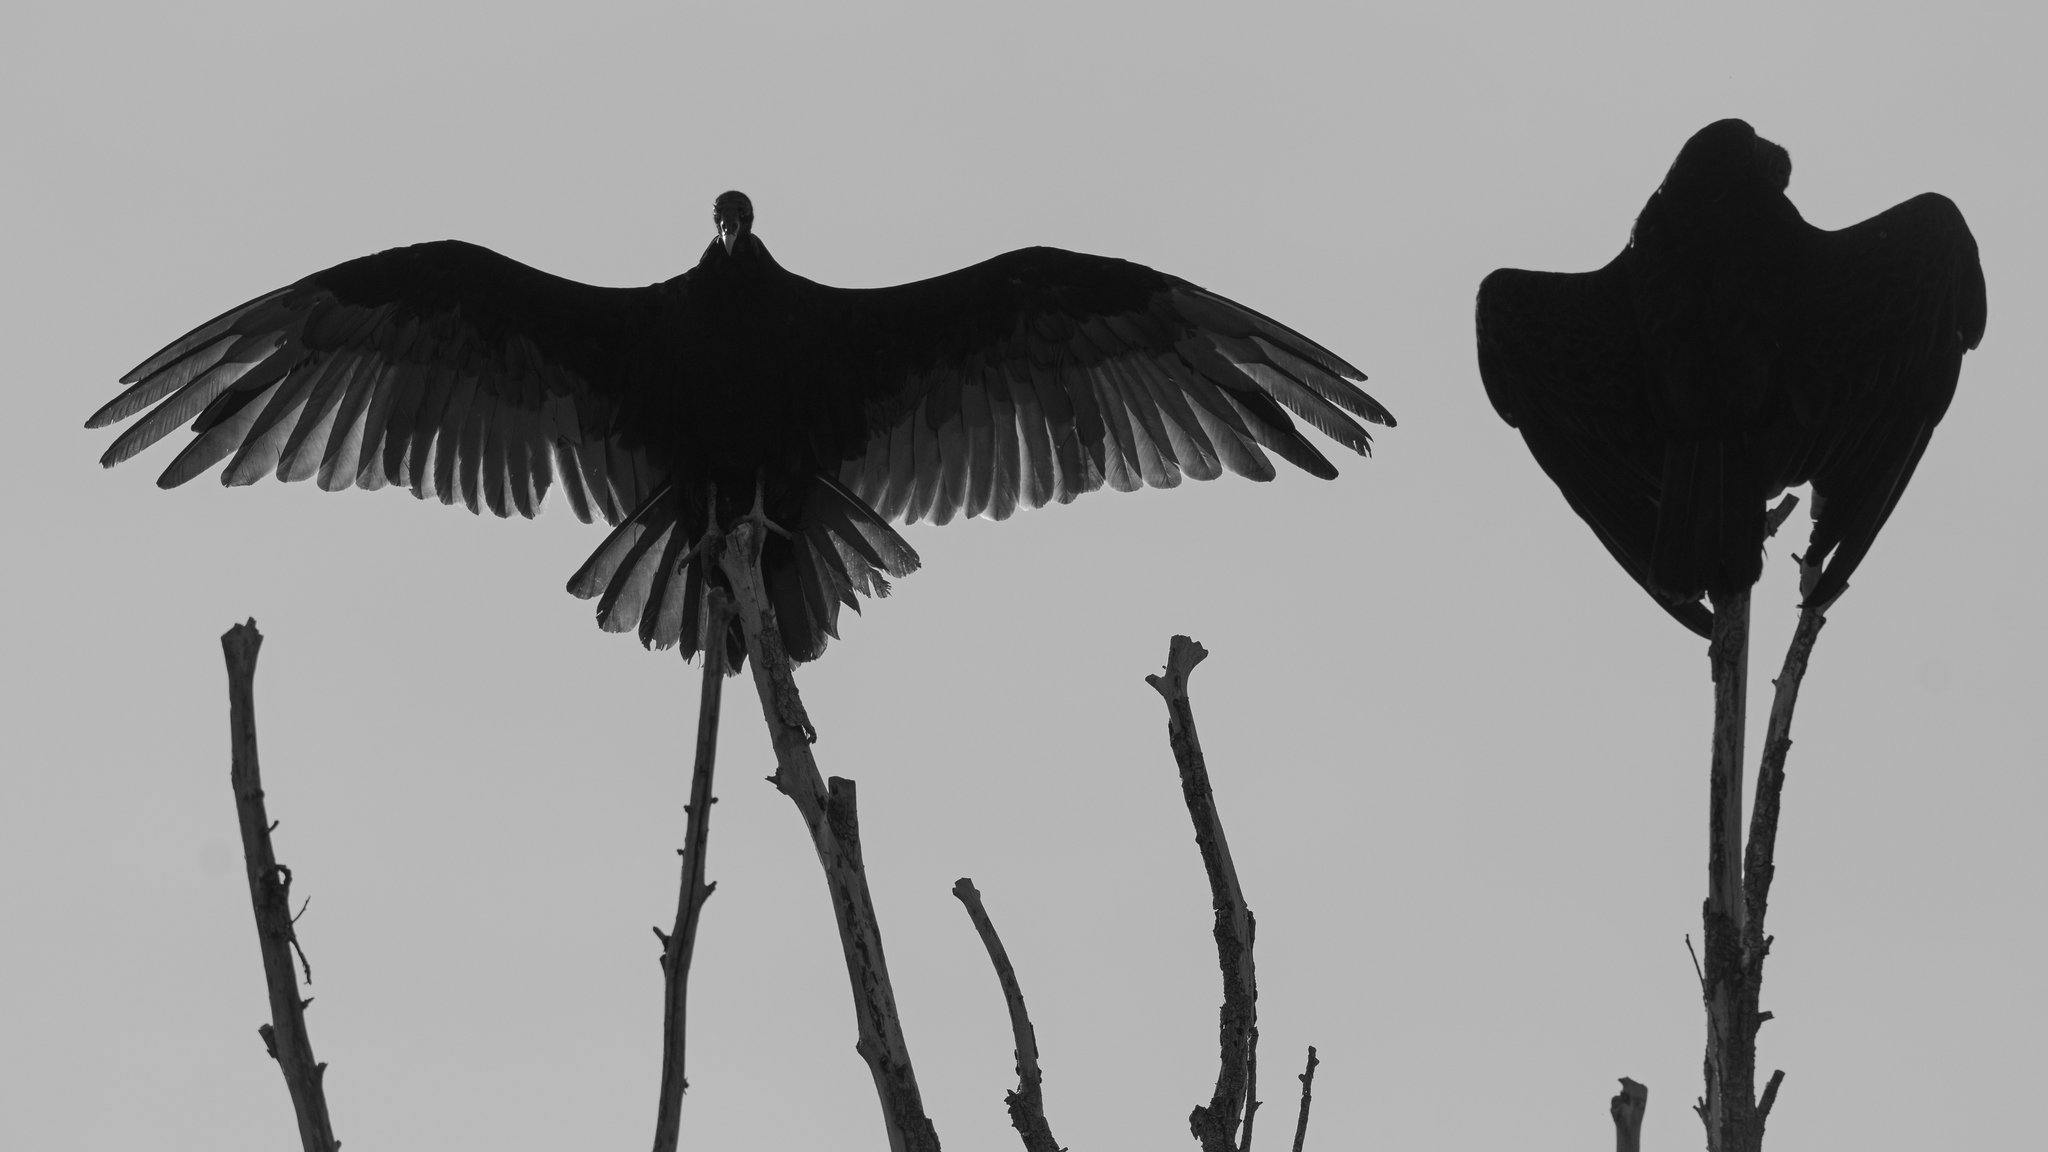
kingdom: Animalia
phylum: Chordata
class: Aves
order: Accipitriformes
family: Cathartidae
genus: Cathartes
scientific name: Cathartes aura
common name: Turkey vulture
